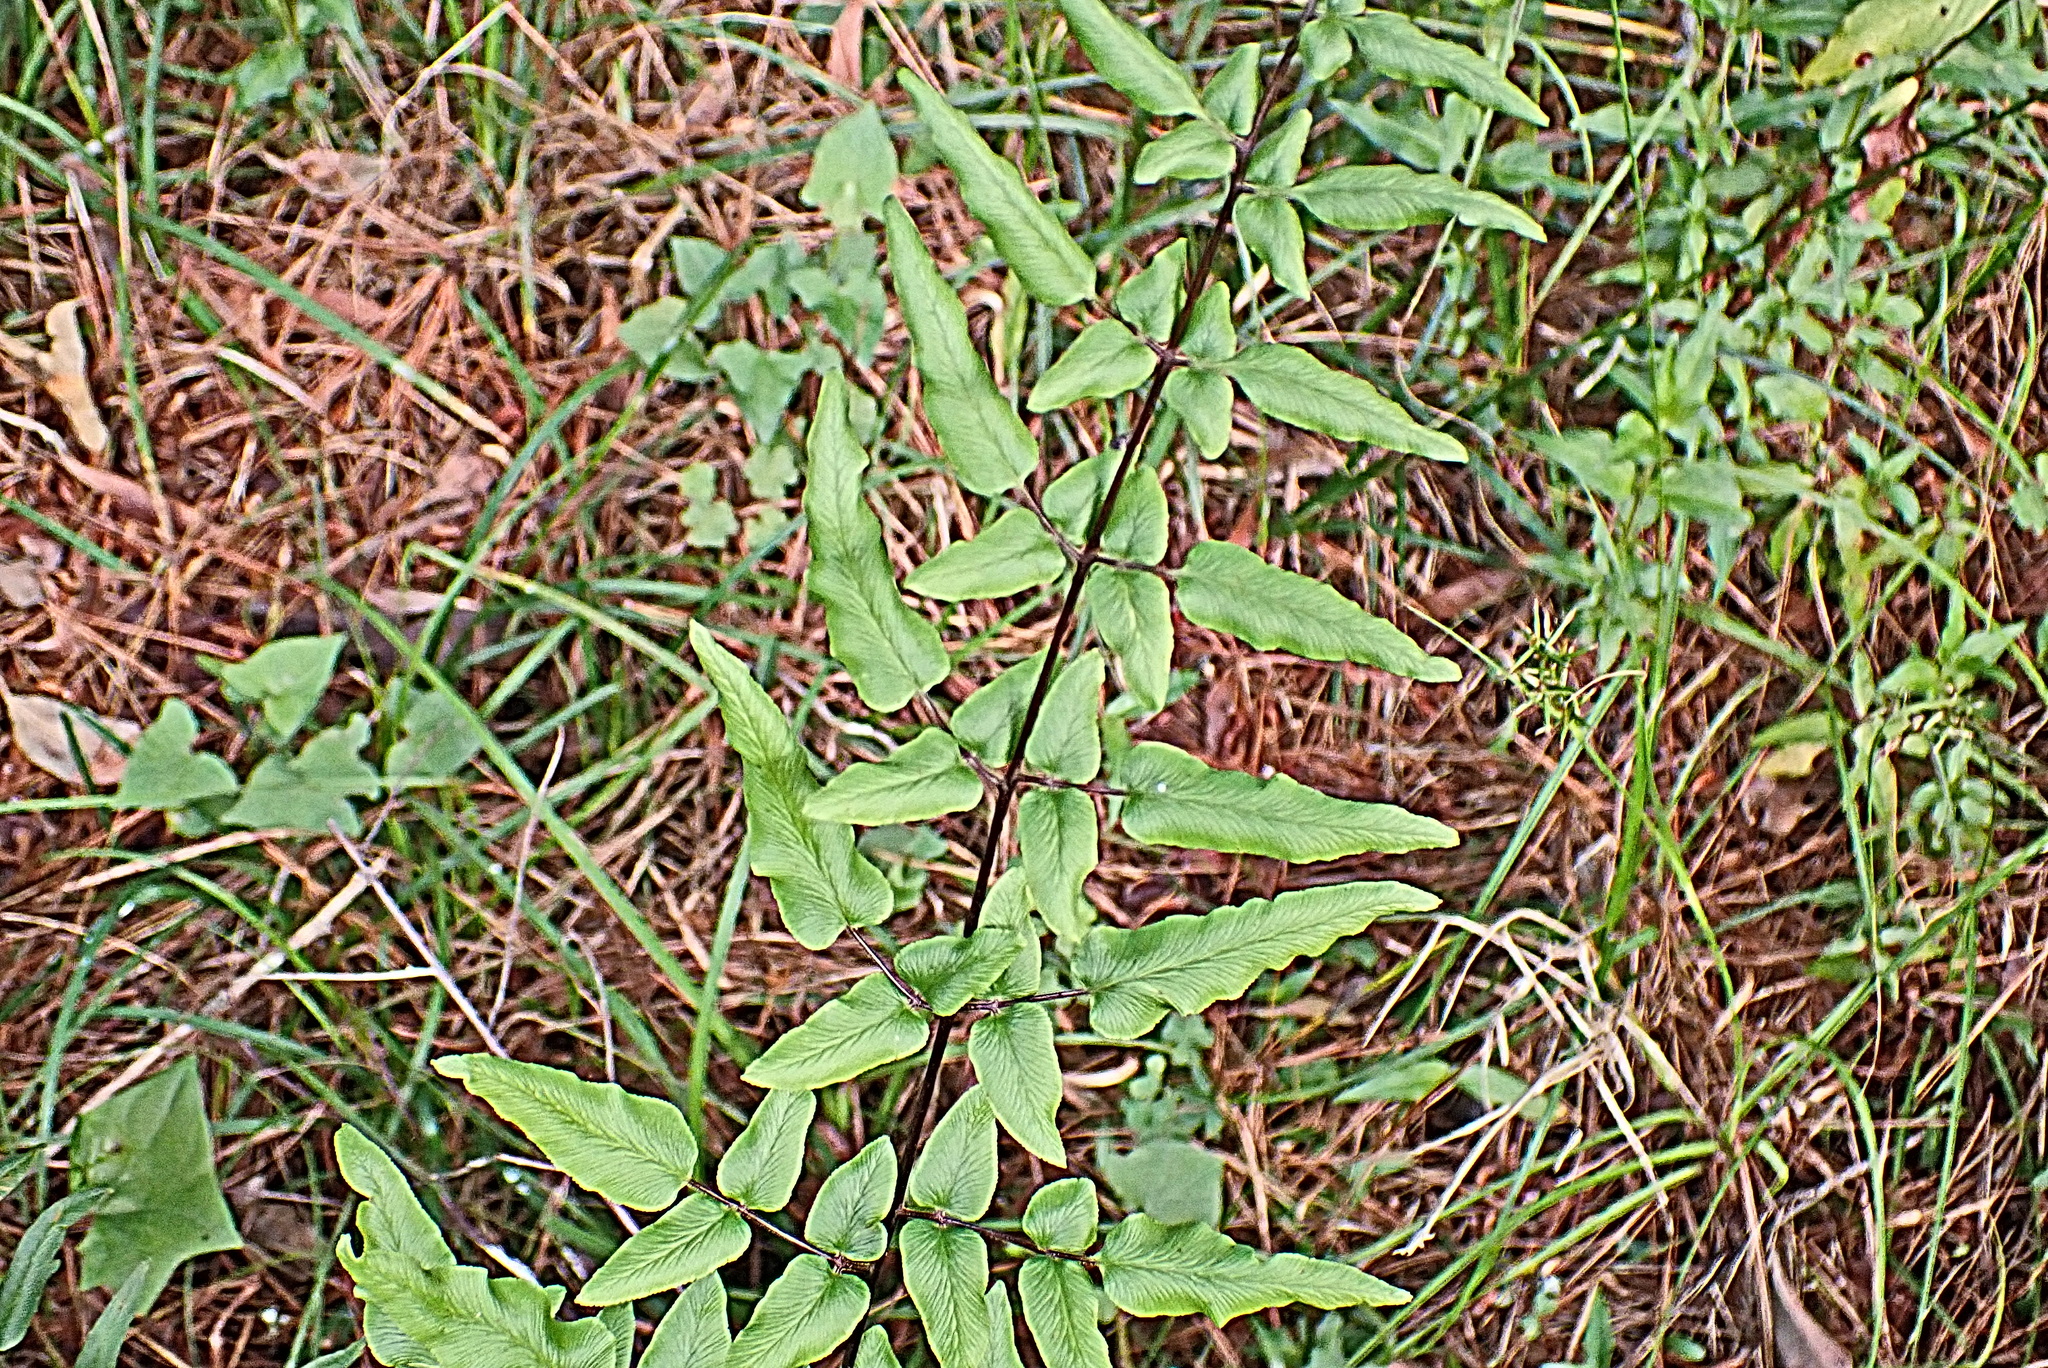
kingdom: Plantae
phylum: Tracheophyta
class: Polypodiopsida
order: Polypodiales
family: Pteridaceae
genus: Cheilanthes
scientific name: Cheilanthes viridis
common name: Green cliffbrake
